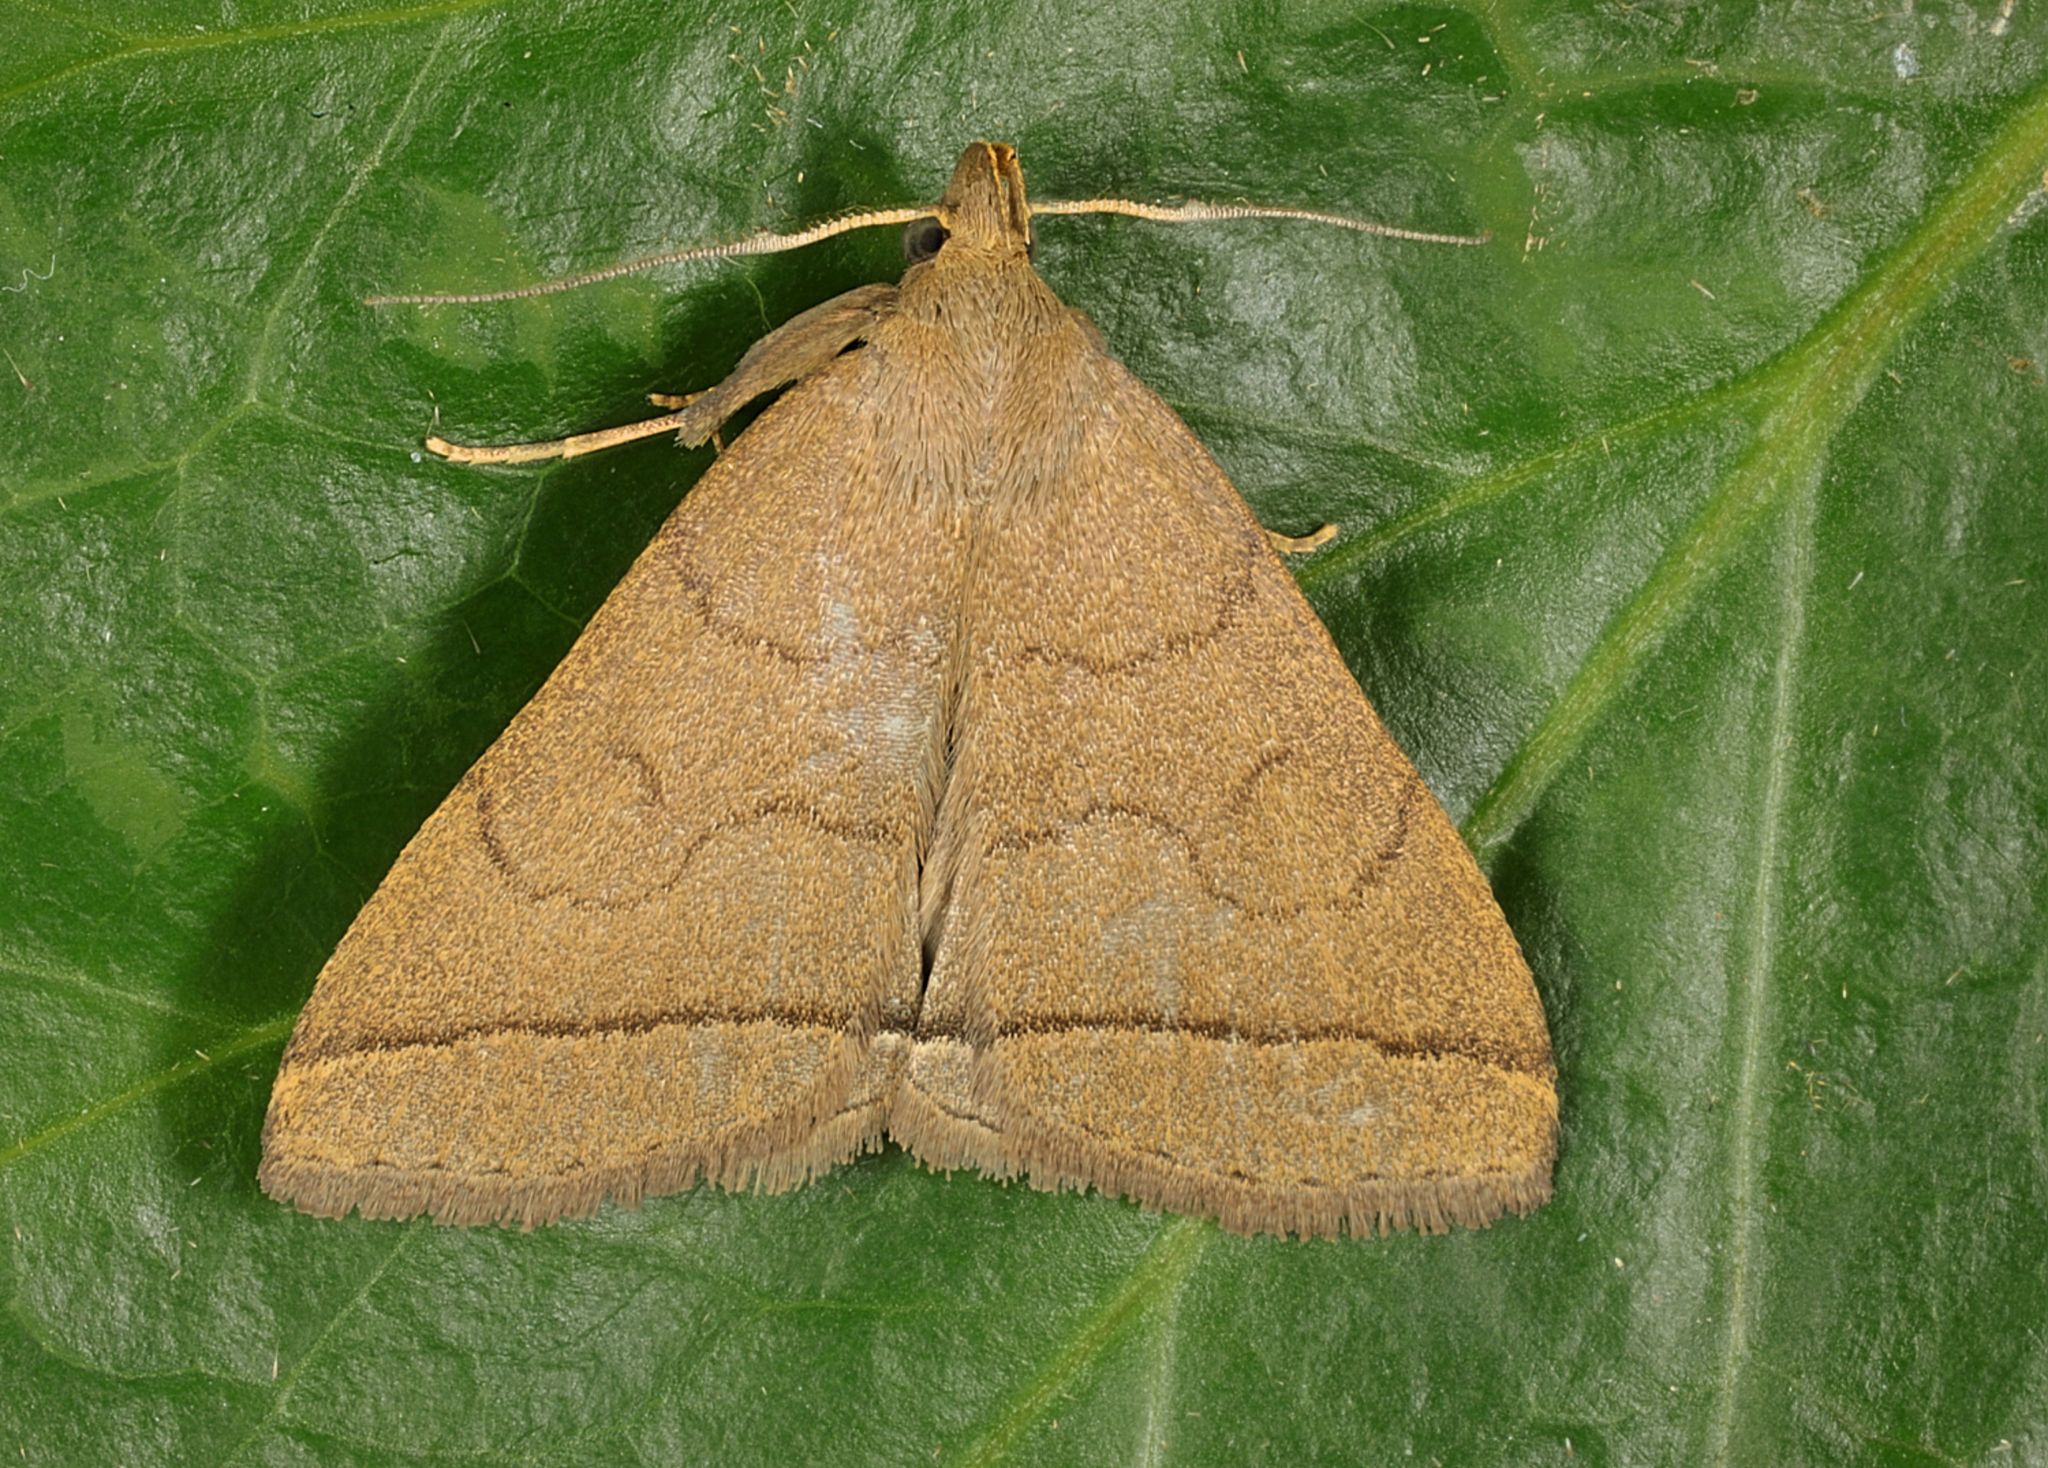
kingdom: Animalia
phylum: Arthropoda
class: Insecta
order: Lepidoptera
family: Erebidae
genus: Herminia
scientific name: Herminia tarsipennalis
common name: Fan-foot
